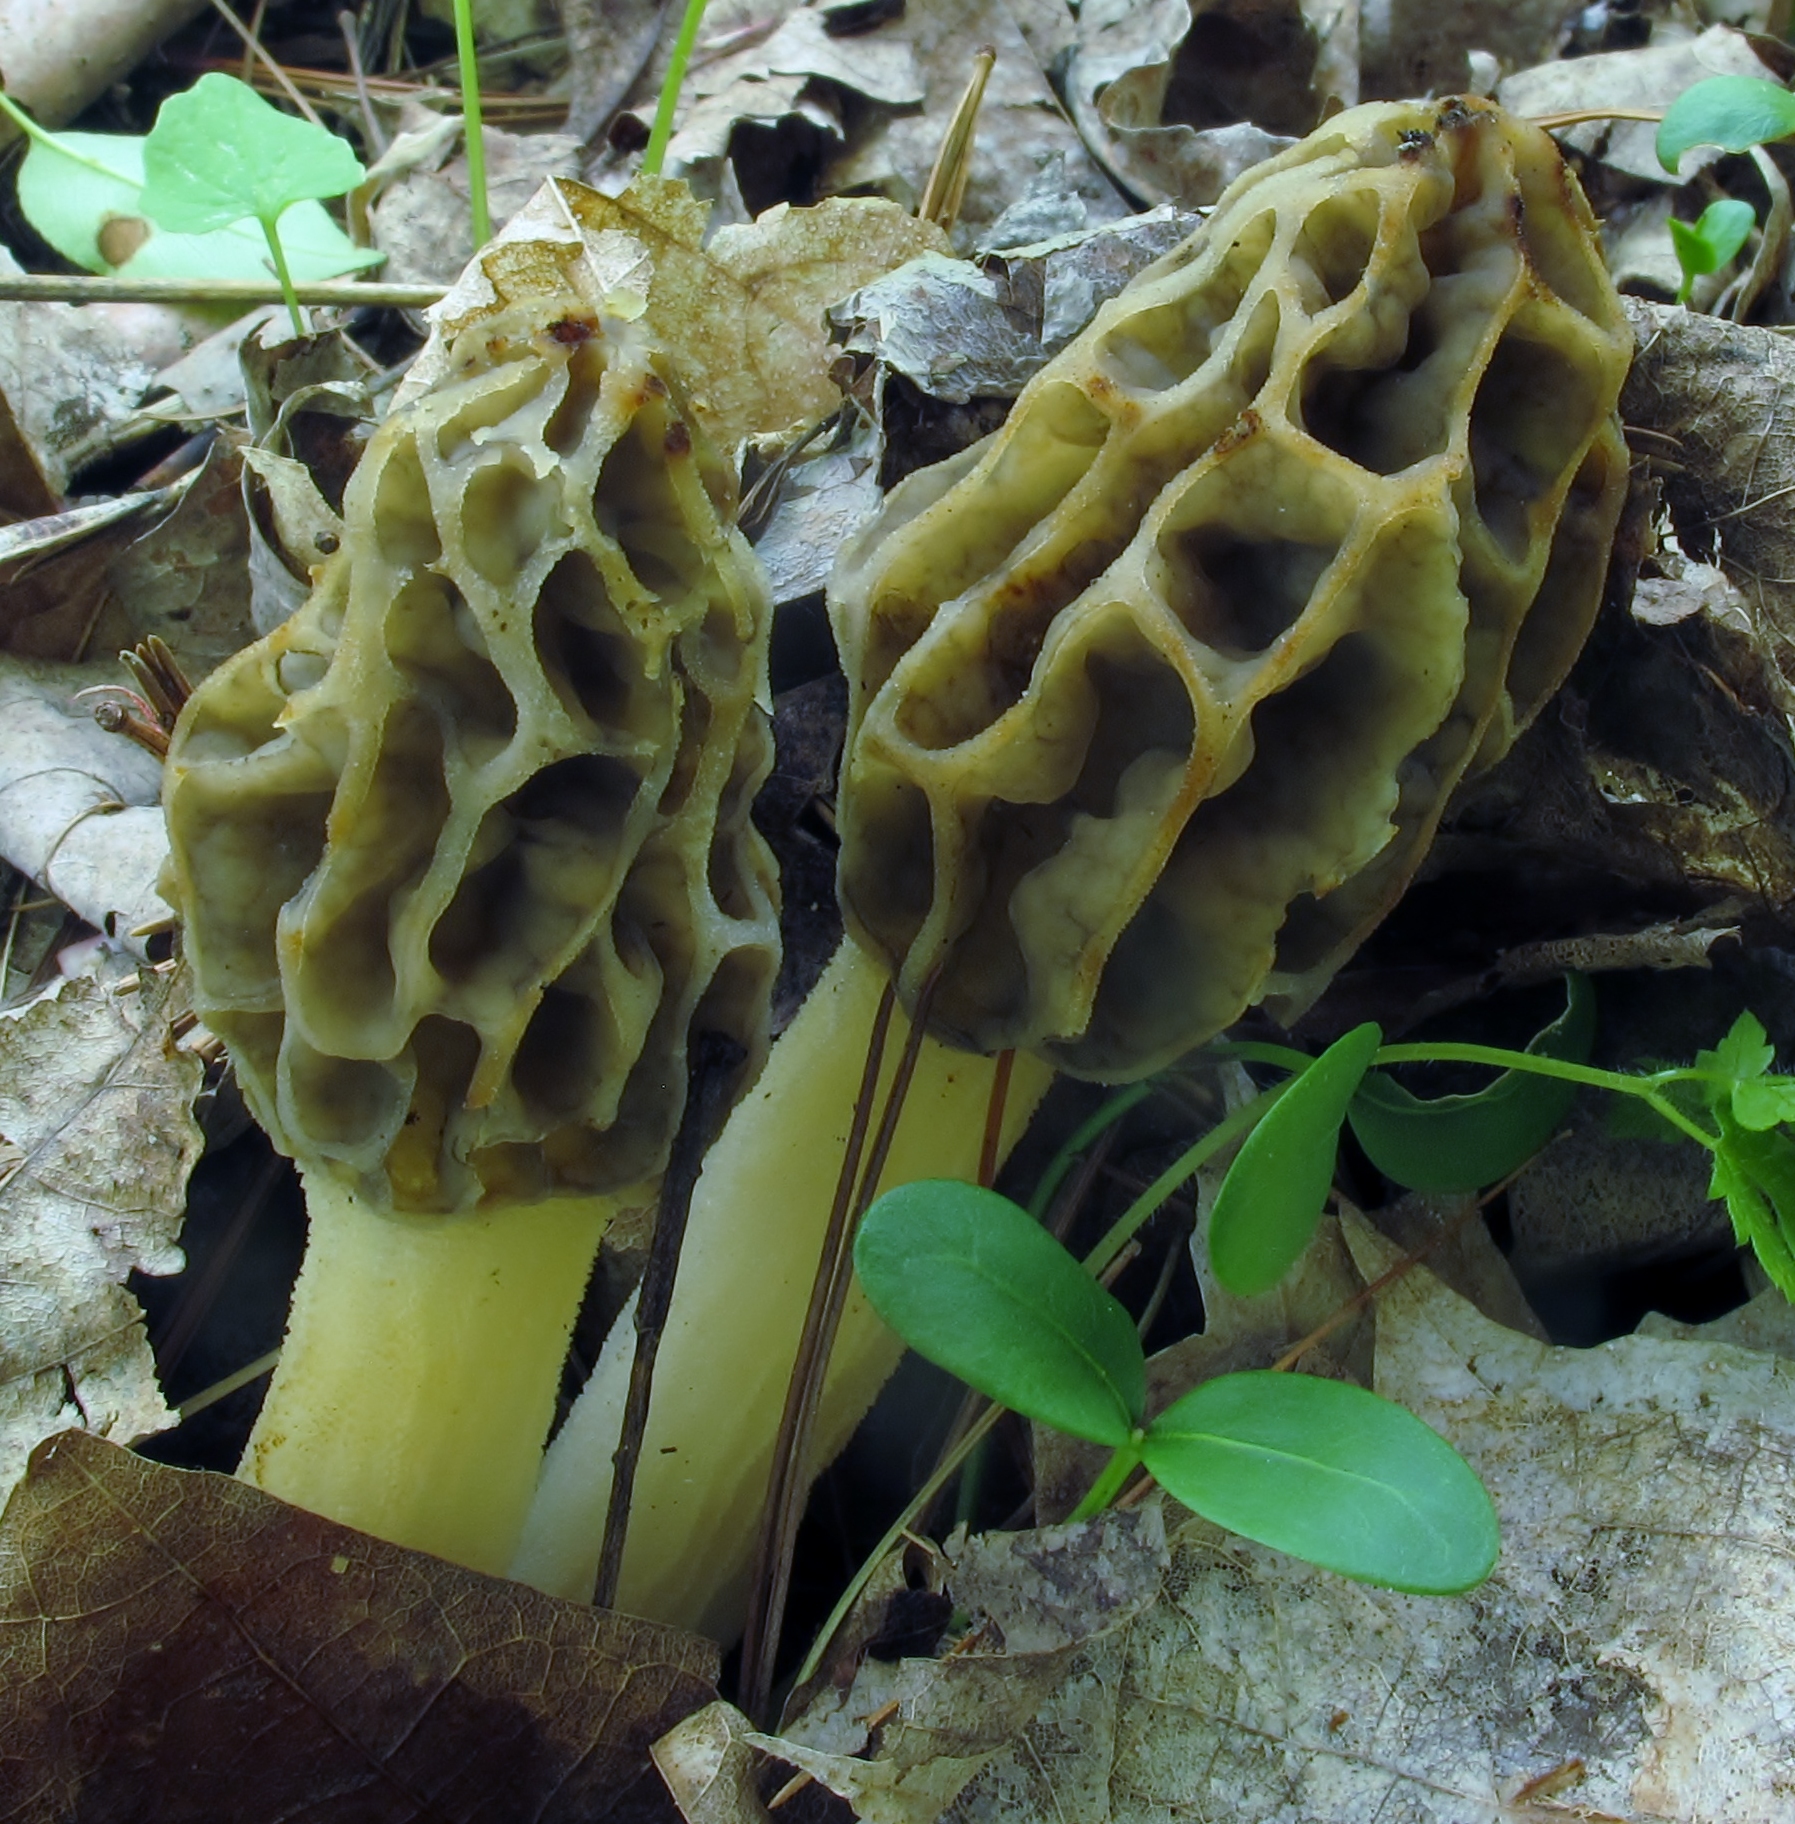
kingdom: Fungi
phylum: Ascomycota
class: Pezizomycetes
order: Pezizales
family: Morchellaceae
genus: Morchella
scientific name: Morchella diminutiva
